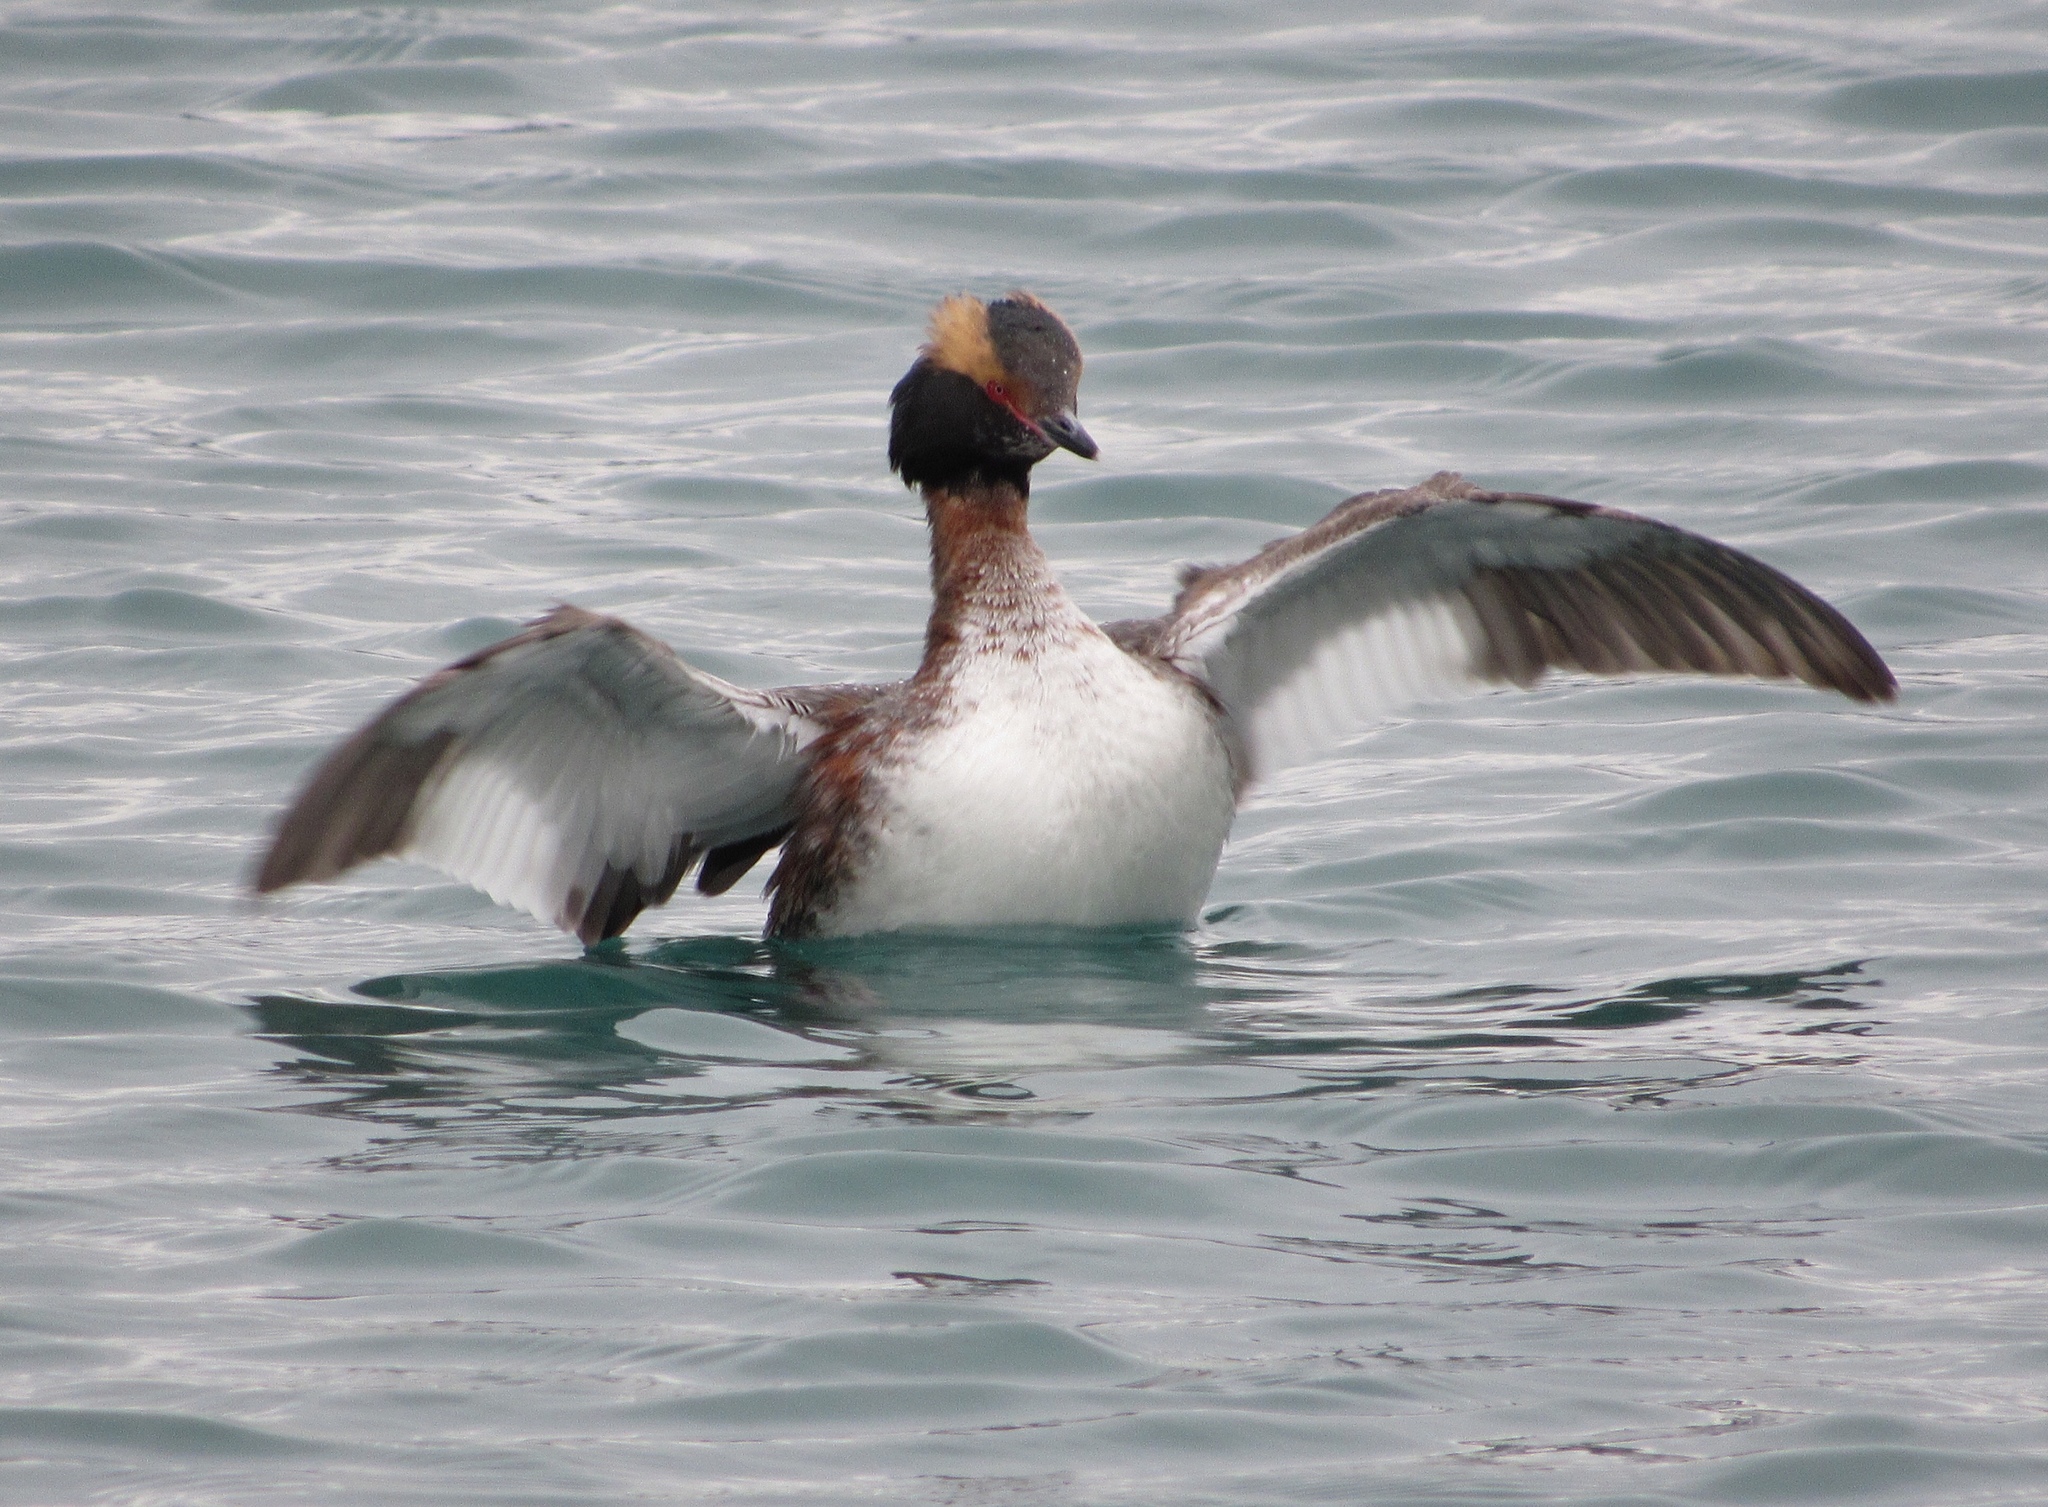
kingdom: Animalia
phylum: Chordata
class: Aves
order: Podicipediformes
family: Podicipedidae
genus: Podiceps
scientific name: Podiceps auritus
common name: Horned grebe
